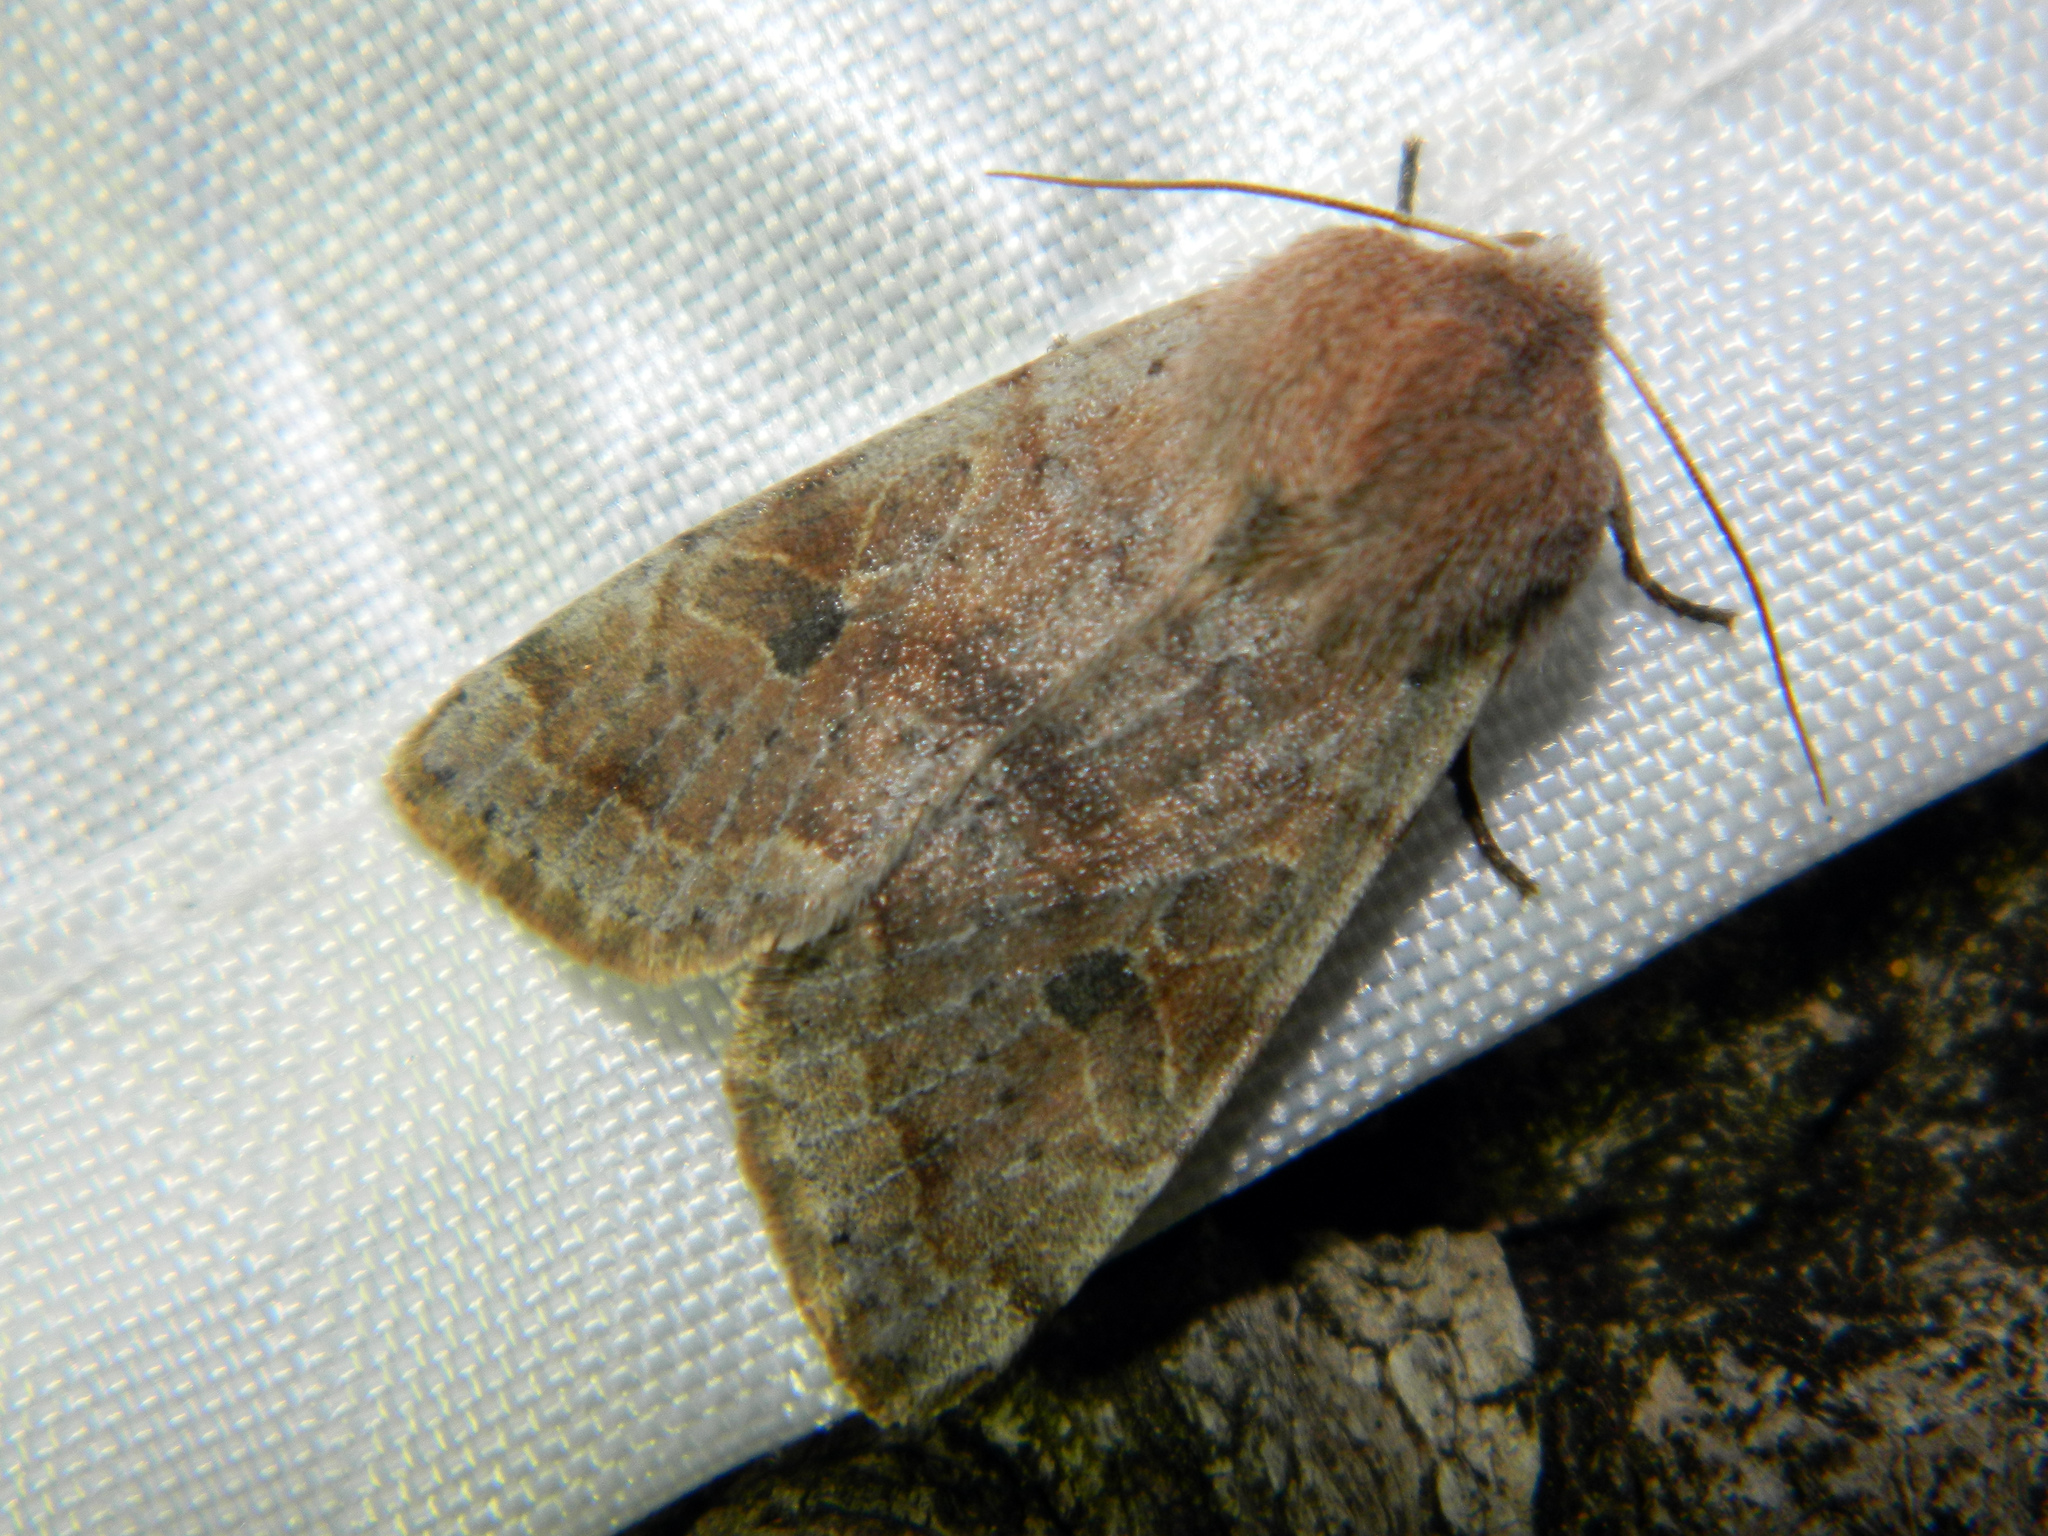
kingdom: Animalia
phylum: Arthropoda
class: Insecta
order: Lepidoptera
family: Noctuidae
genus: Orthosia
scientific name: Orthosia hibisci
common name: Green fruitworm
